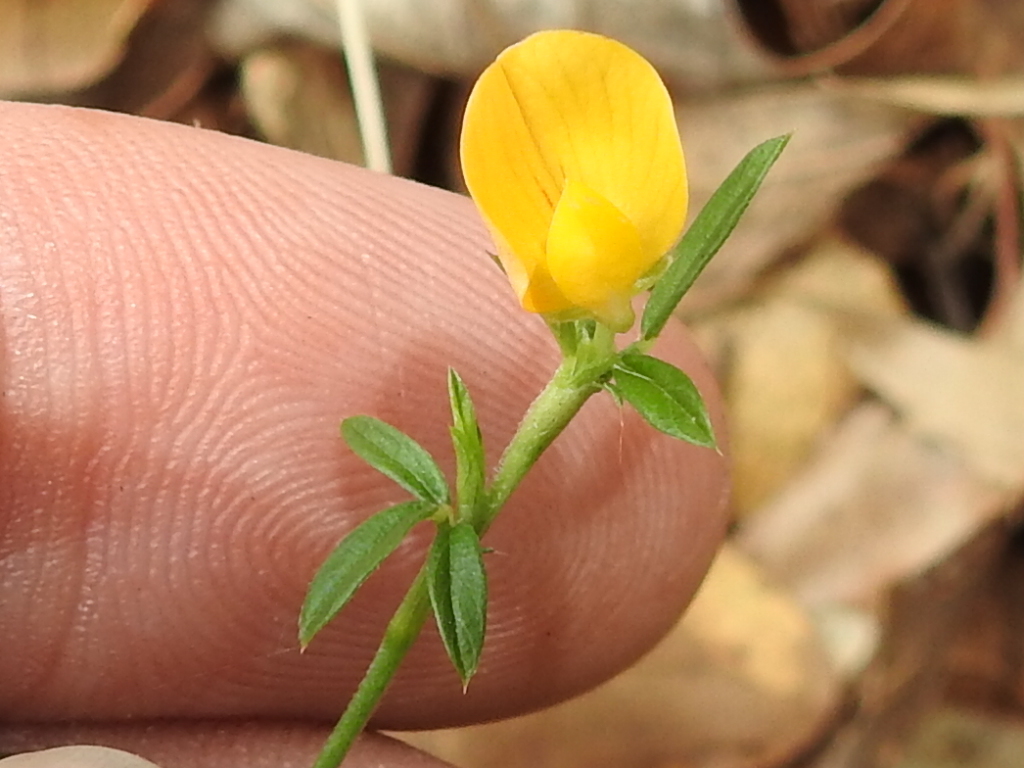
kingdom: Plantae
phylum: Tracheophyta
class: Magnoliopsida
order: Fabales
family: Fabaceae
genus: Stylosanthes
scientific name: Stylosanthes biflora
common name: Two-flower pencil-flower
